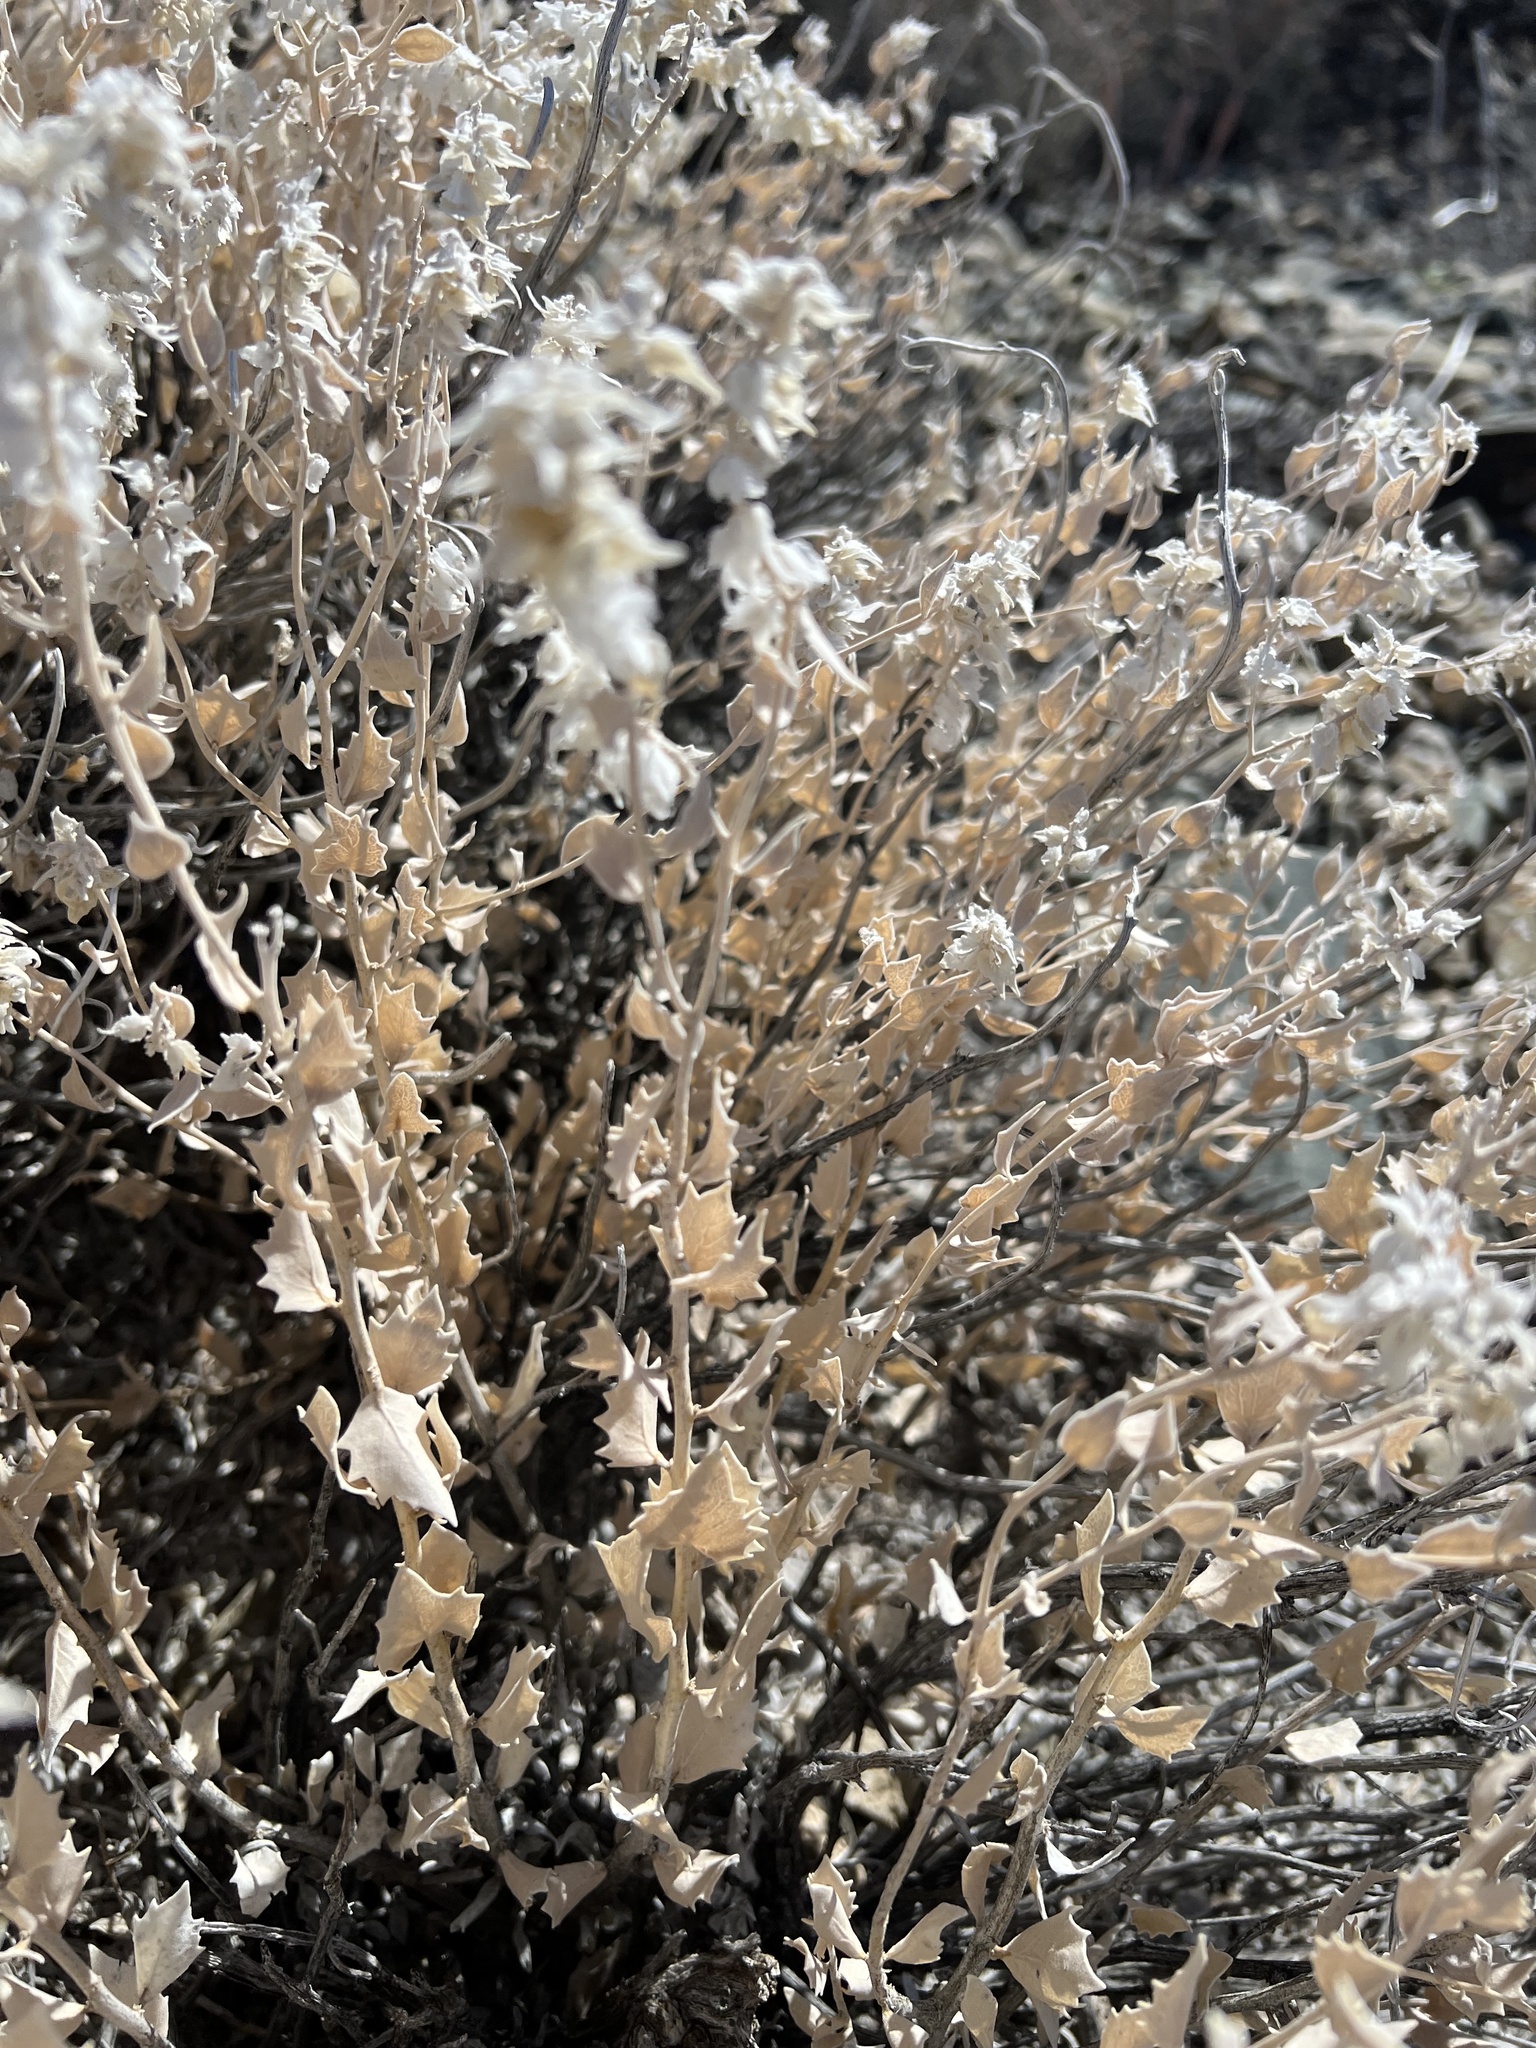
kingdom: Plantae
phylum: Tracheophyta
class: Magnoliopsida
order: Cornales
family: Loasaceae
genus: Petalonyx
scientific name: Petalonyx nitidus
